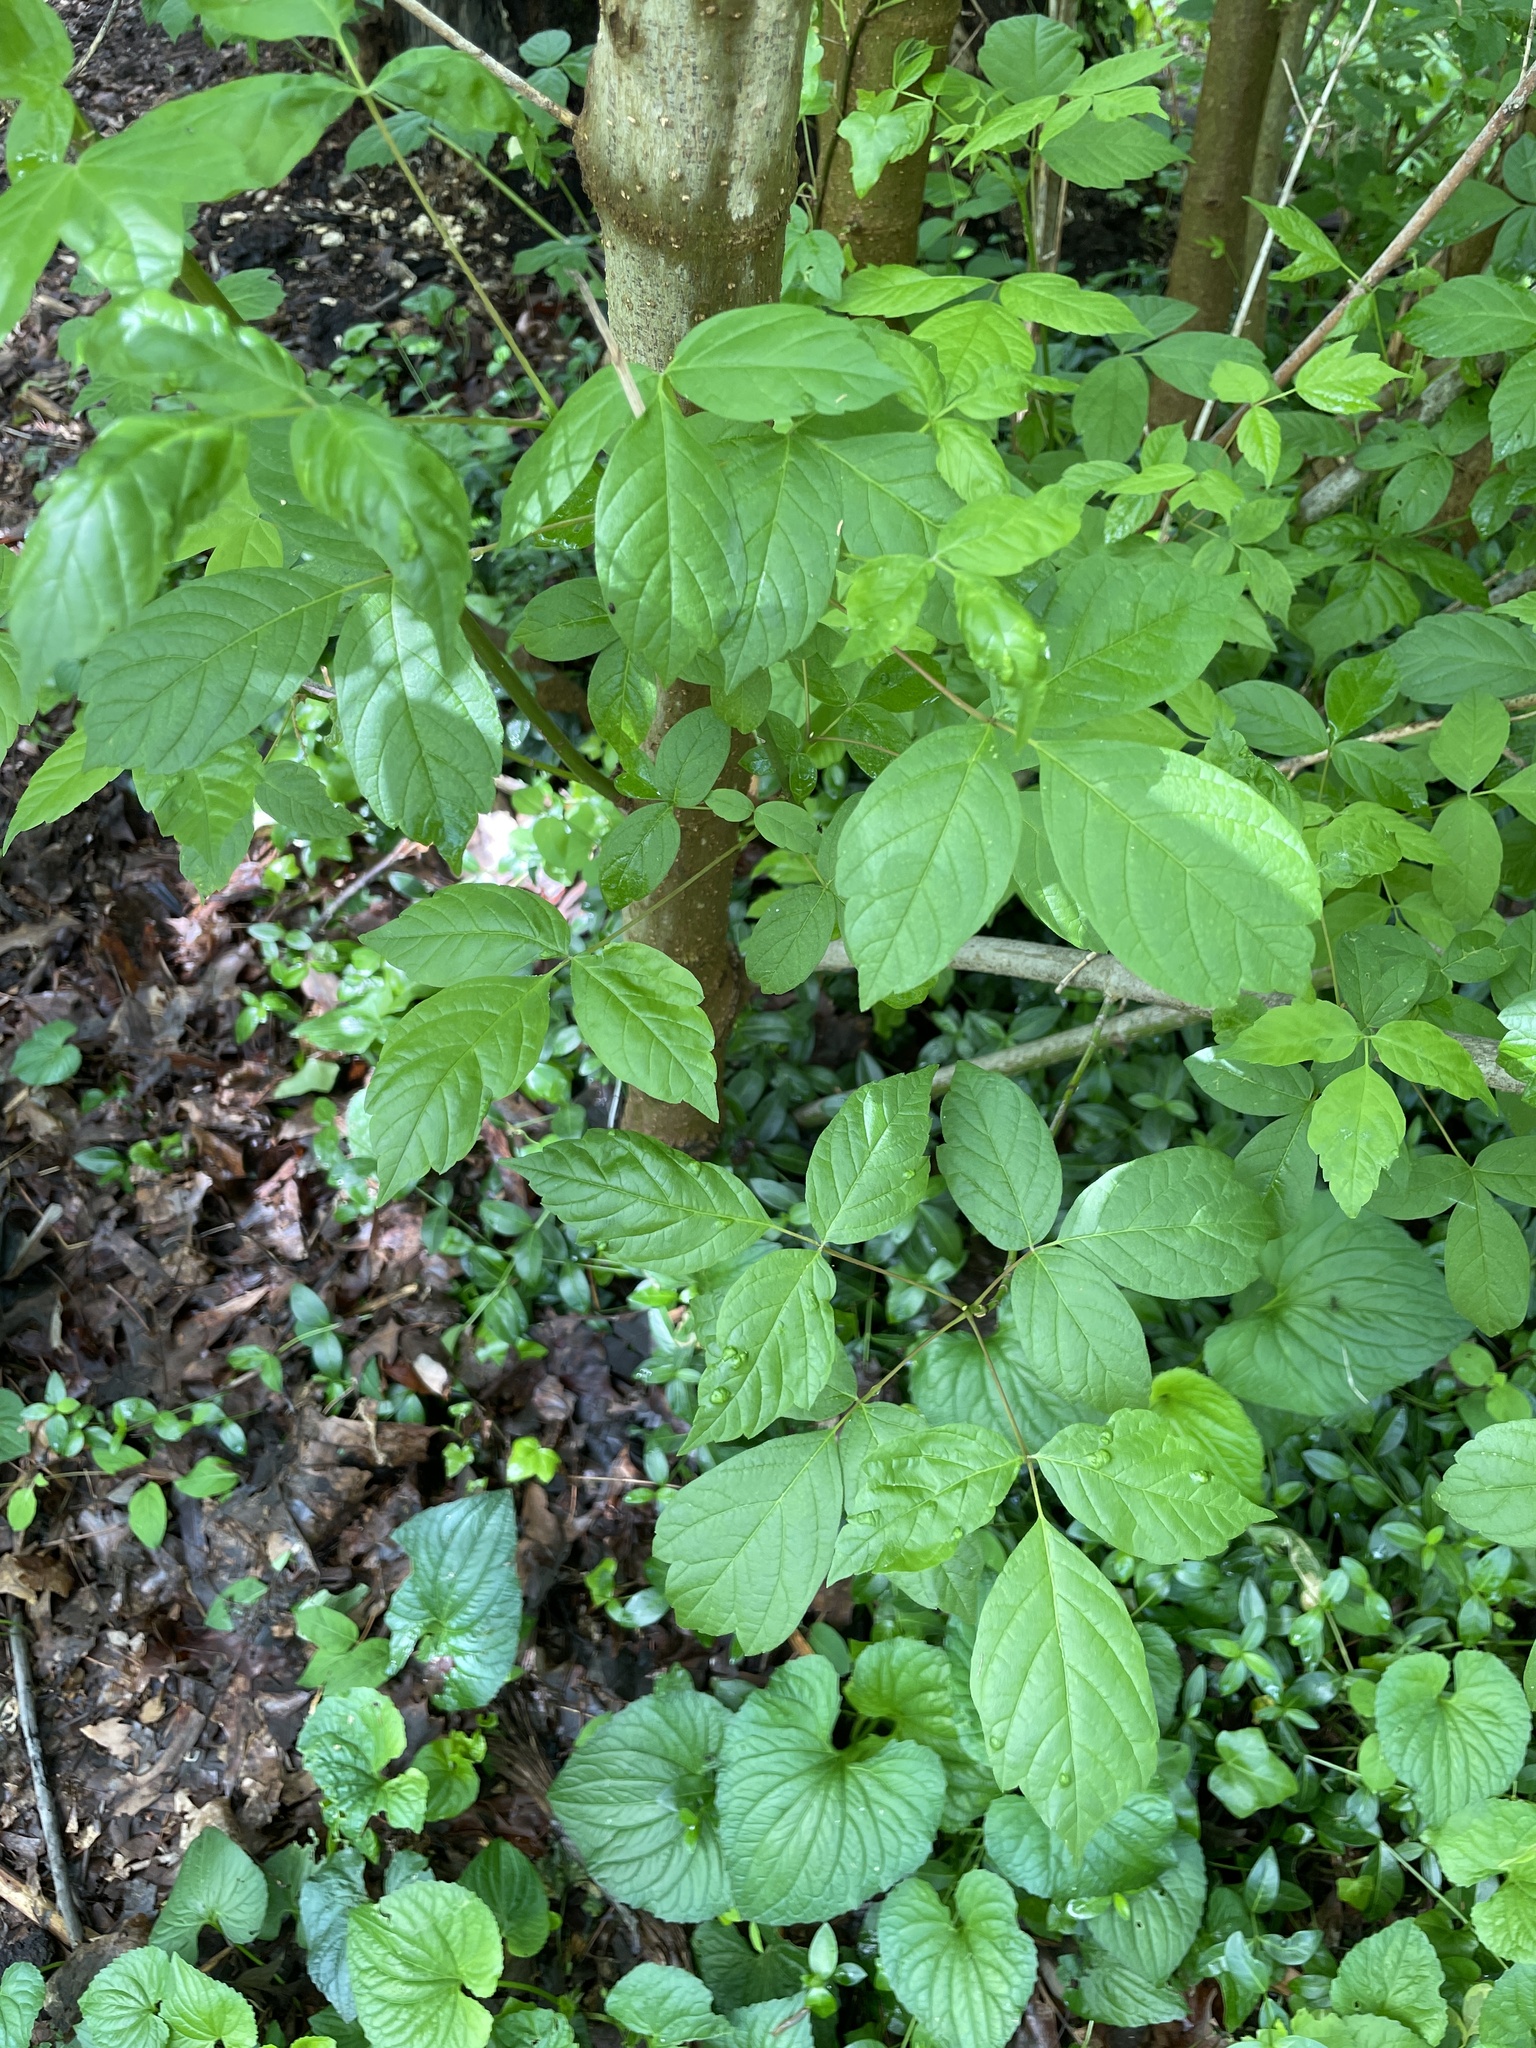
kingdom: Plantae
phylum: Tracheophyta
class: Magnoliopsida
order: Sapindales
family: Sapindaceae
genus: Acer
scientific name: Acer negundo
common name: Ashleaf maple
